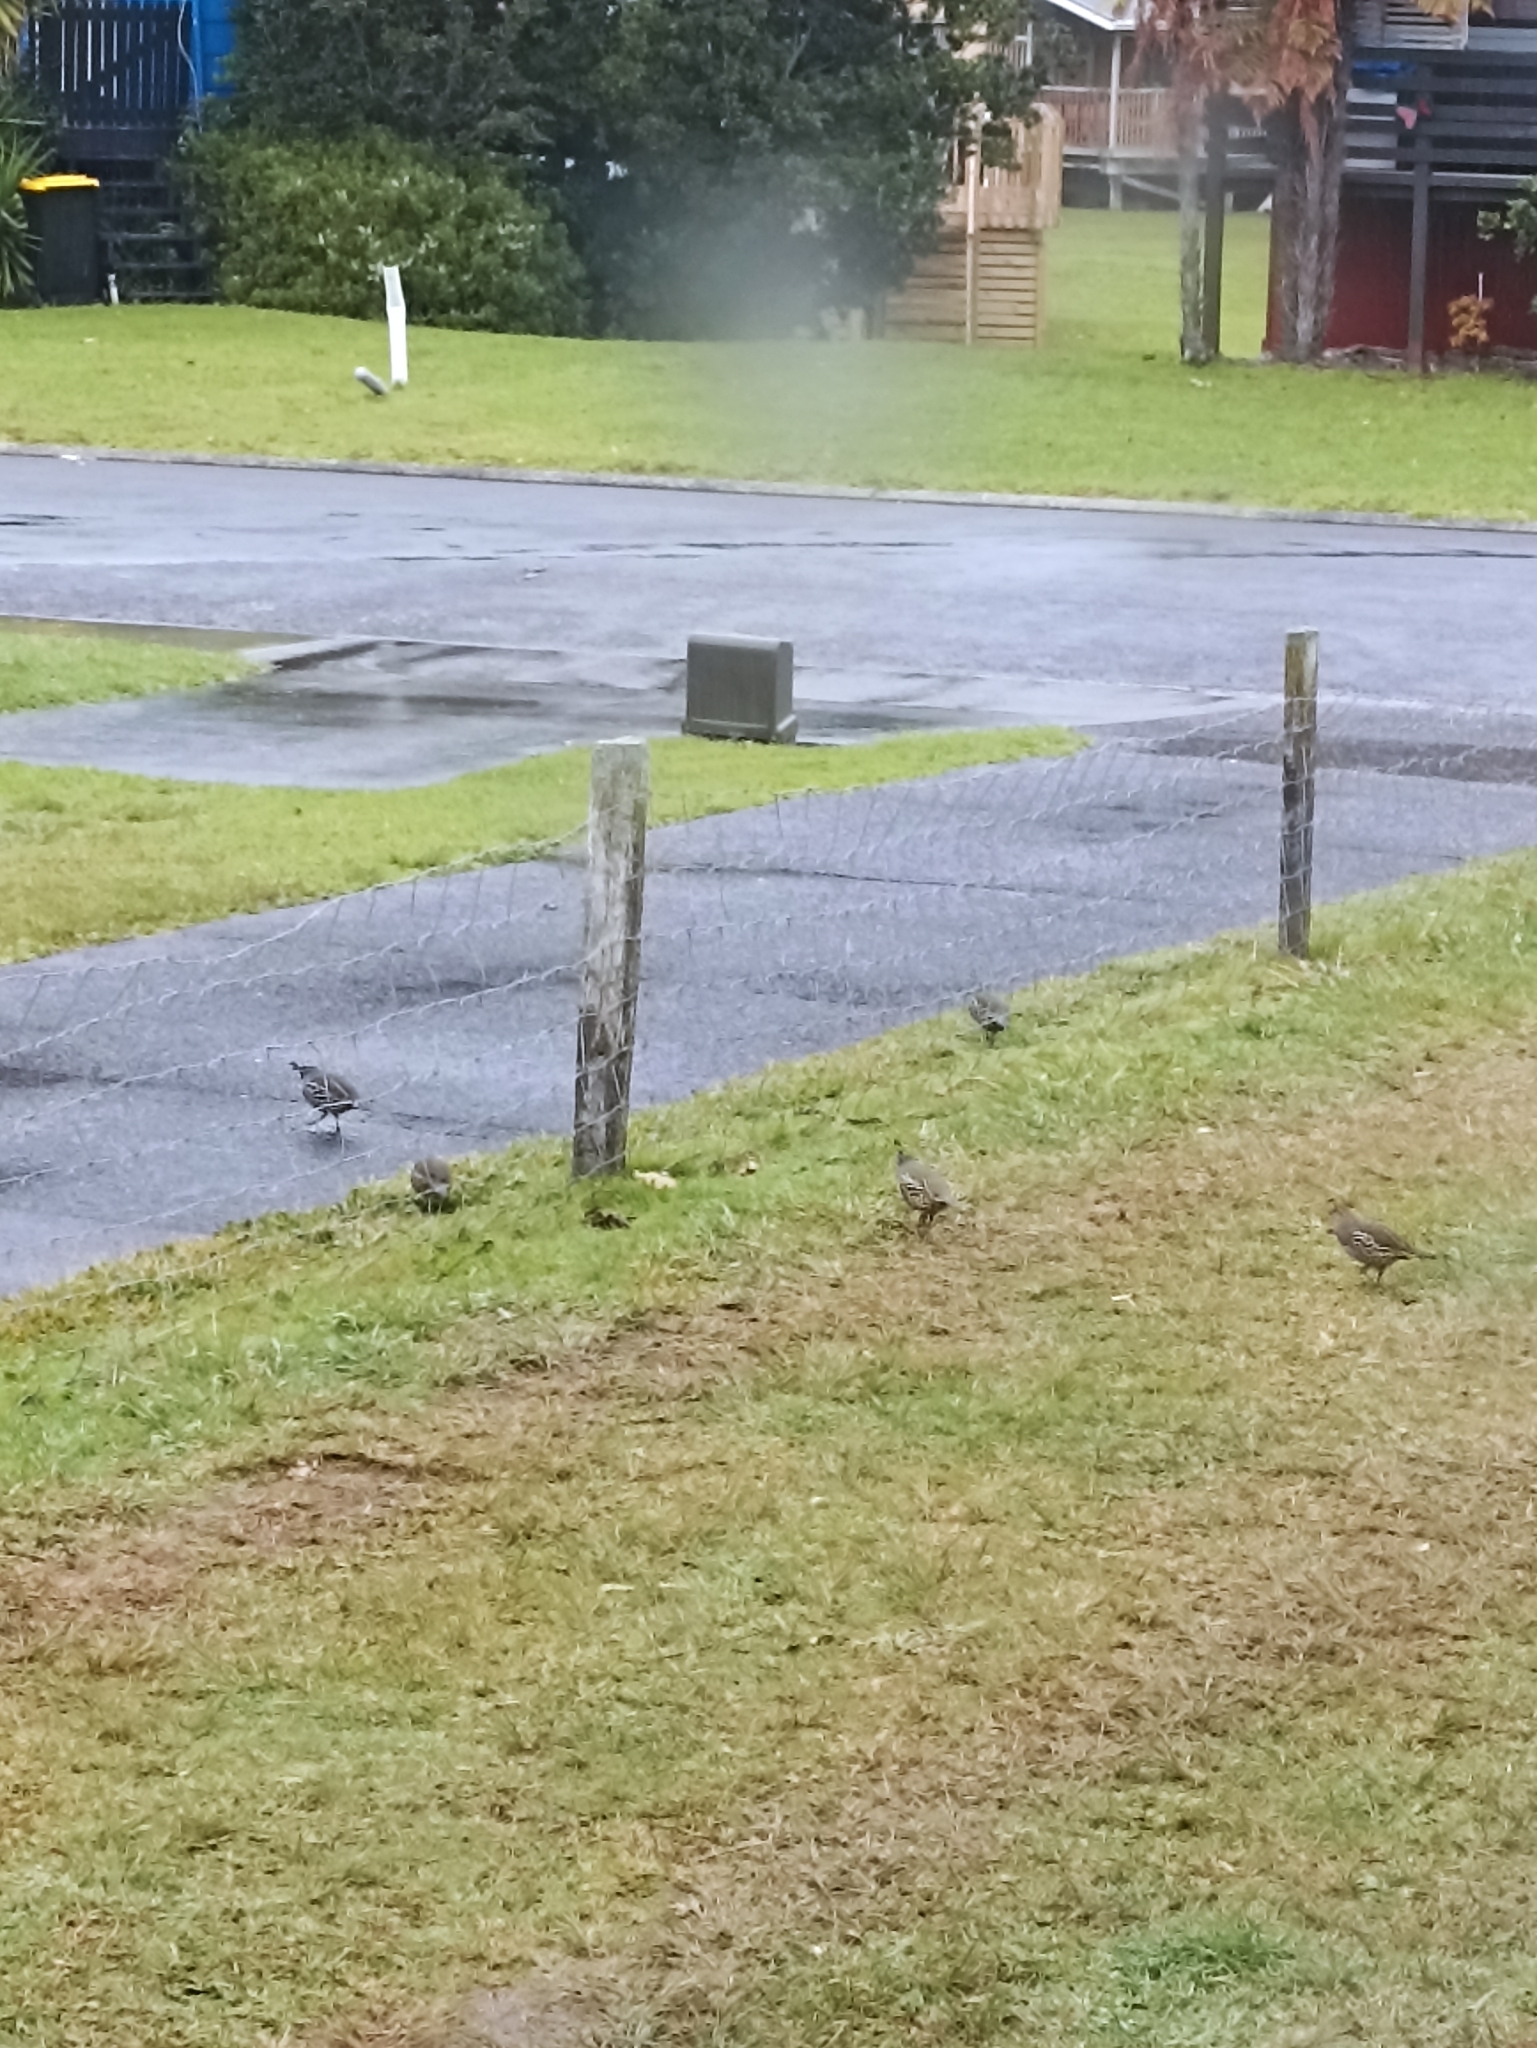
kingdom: Animalia
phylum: Chordata
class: Aves
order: Galliformes
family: Odontophoridae
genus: Callipepla
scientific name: Callipepla californica
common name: California quail
